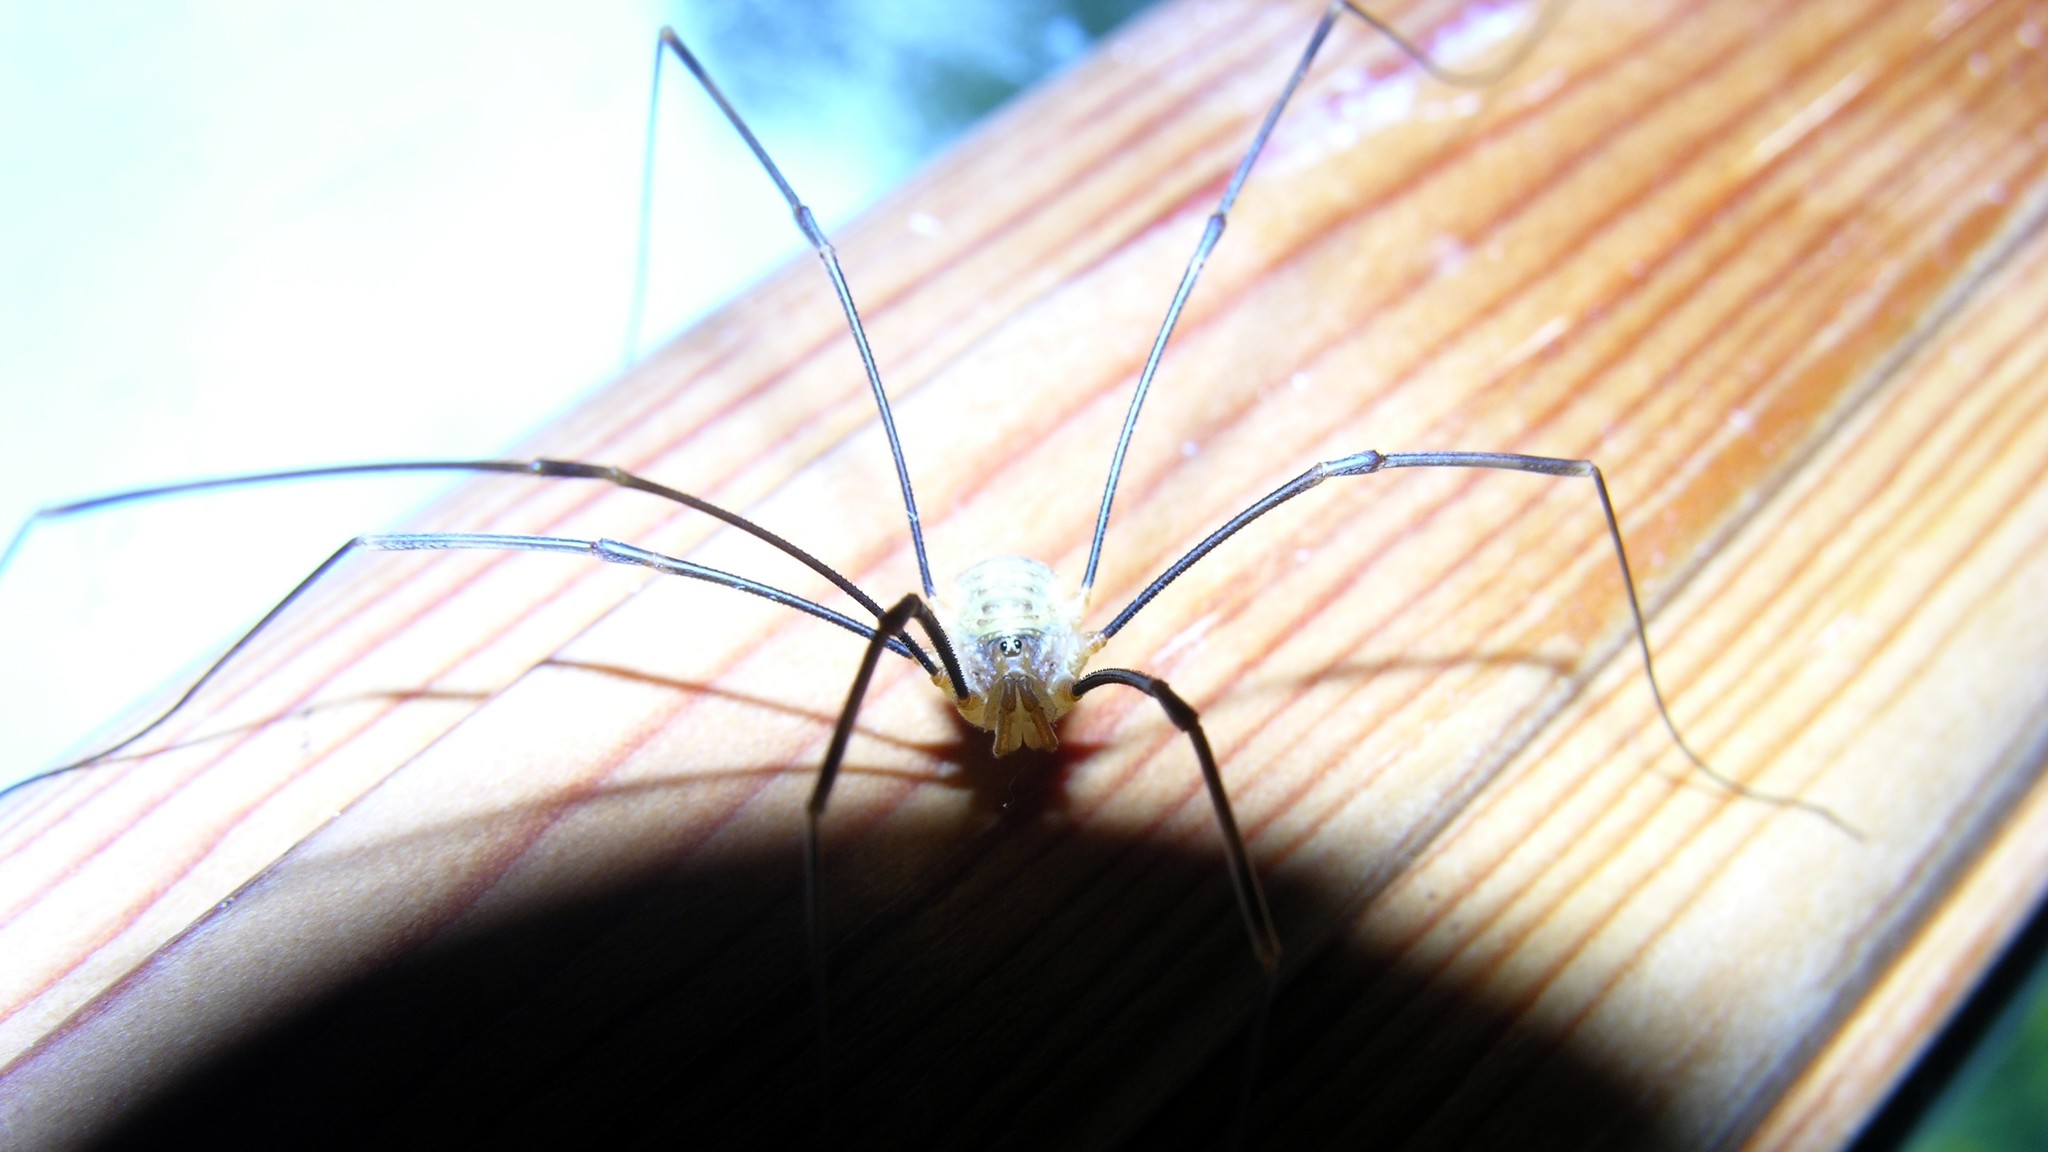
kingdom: Animalia
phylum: Arthropoda
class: Arachnida
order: Opiliones
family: Phalangiidae
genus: Opilio
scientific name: Opilio canestrinii
